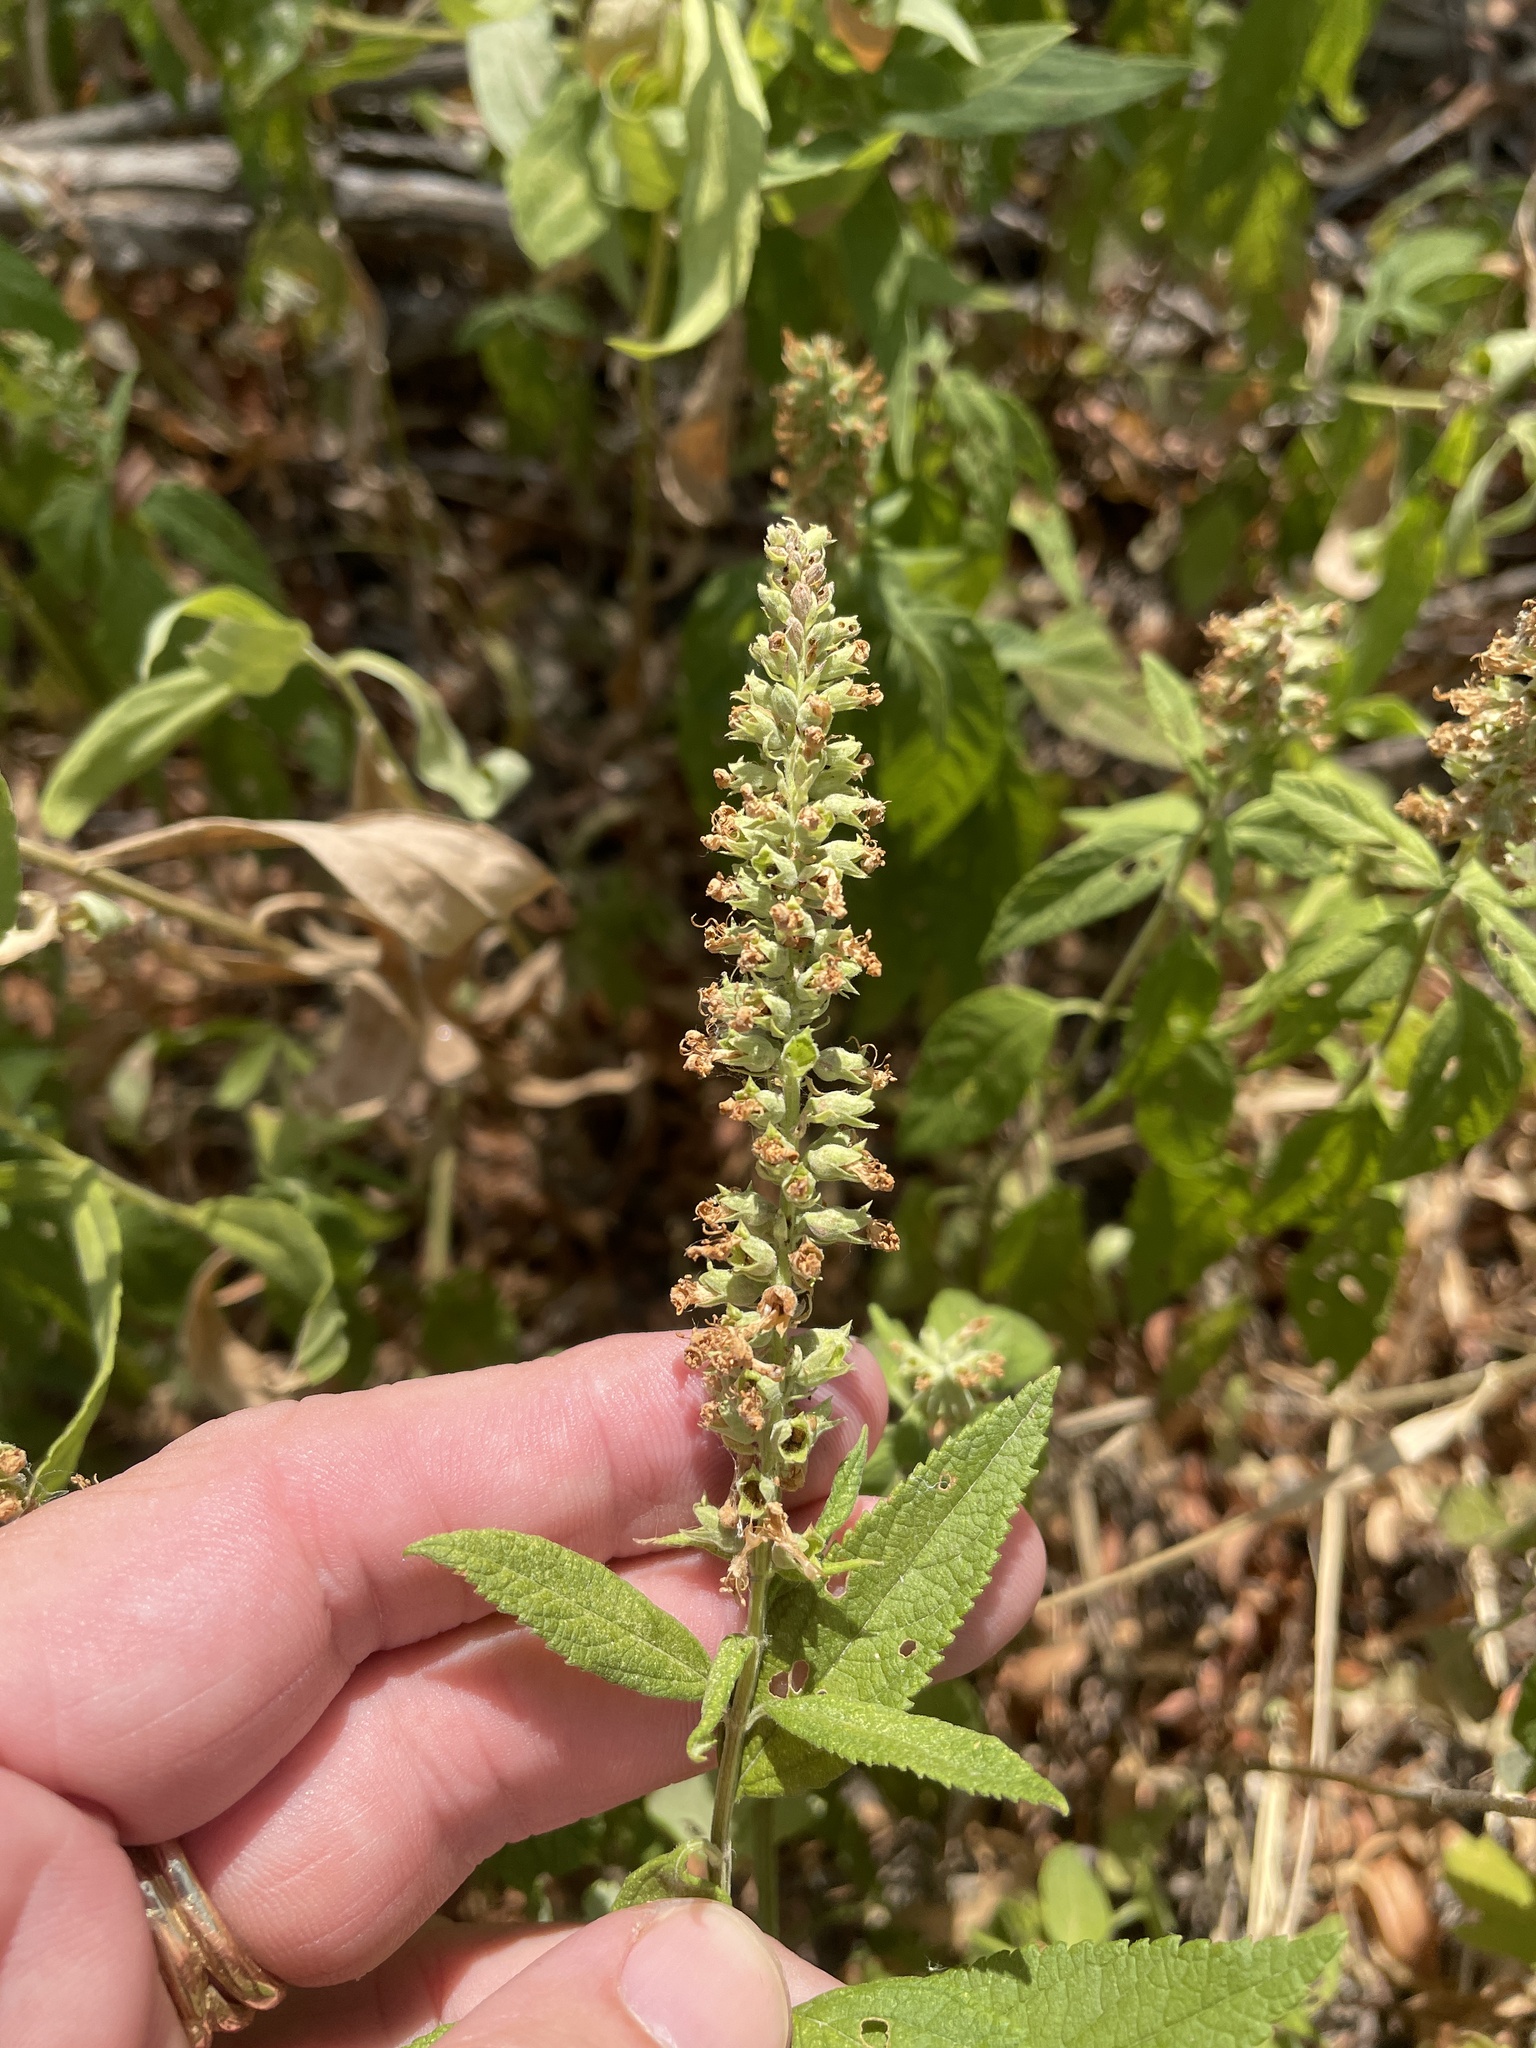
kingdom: Plantae
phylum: Tracheophyta
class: Magnoliopsida
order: Lamiales
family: Lamiaceae
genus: Teucrium
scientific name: Teucrium canadense
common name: American germander
